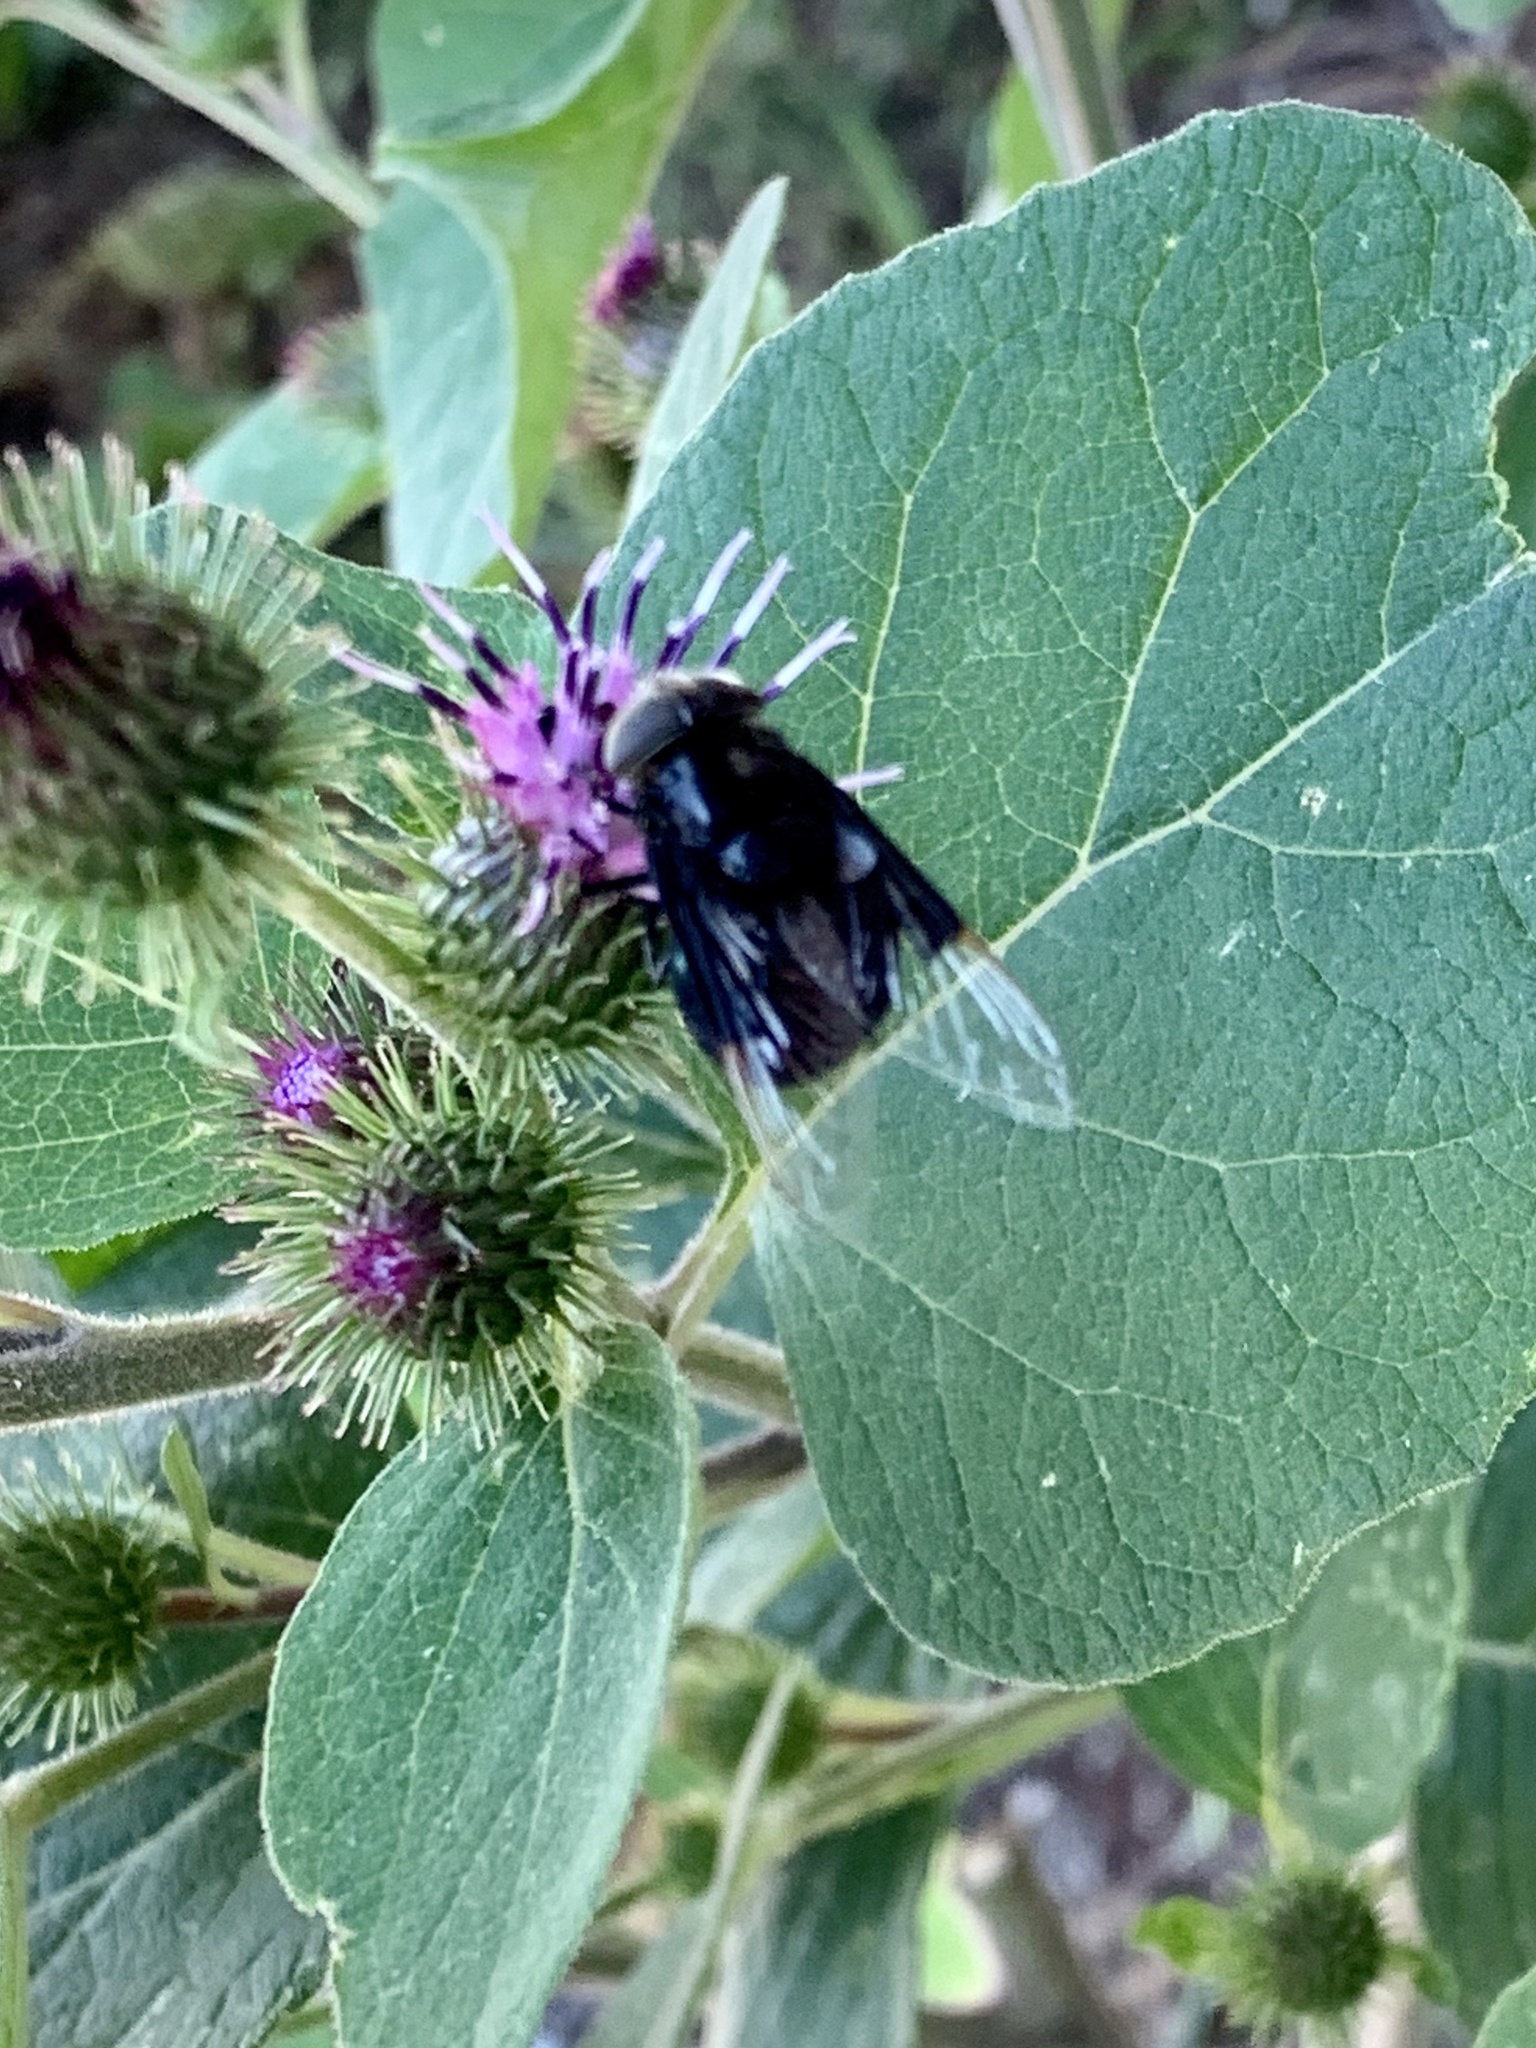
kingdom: Animalia
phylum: Arthropoda
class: Insecta
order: Diptera
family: Syrphidae
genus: Copestylum
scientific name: Copestylum violaceum
